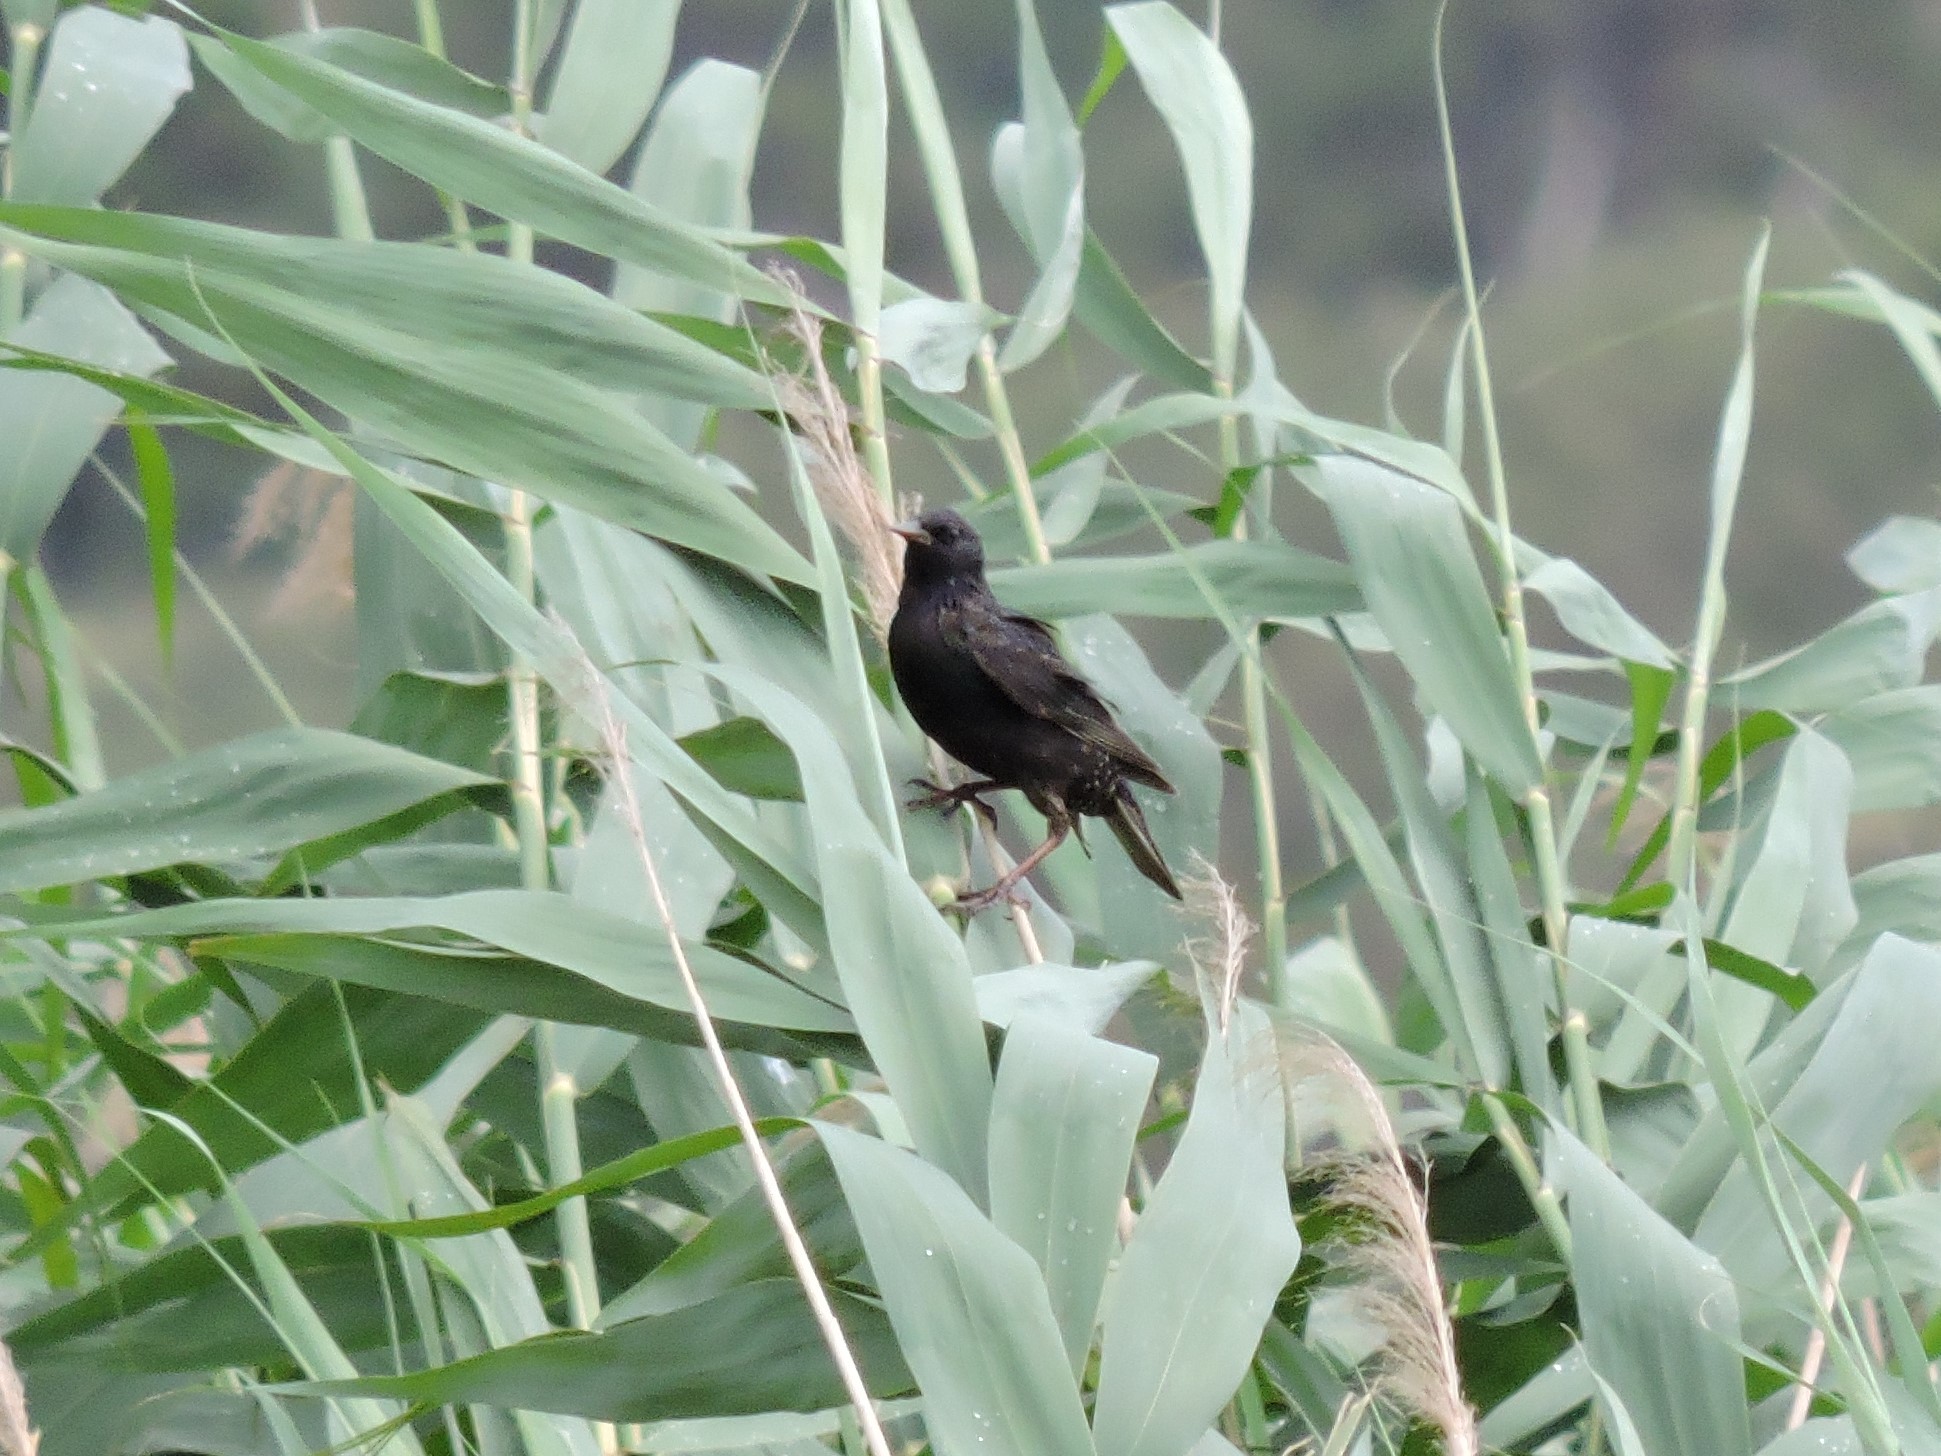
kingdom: Animalia
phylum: Chordata
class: Aves
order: Passeriformes
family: Sturnidae
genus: Sturnus
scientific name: Sturnus vulgaris
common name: Common starling
